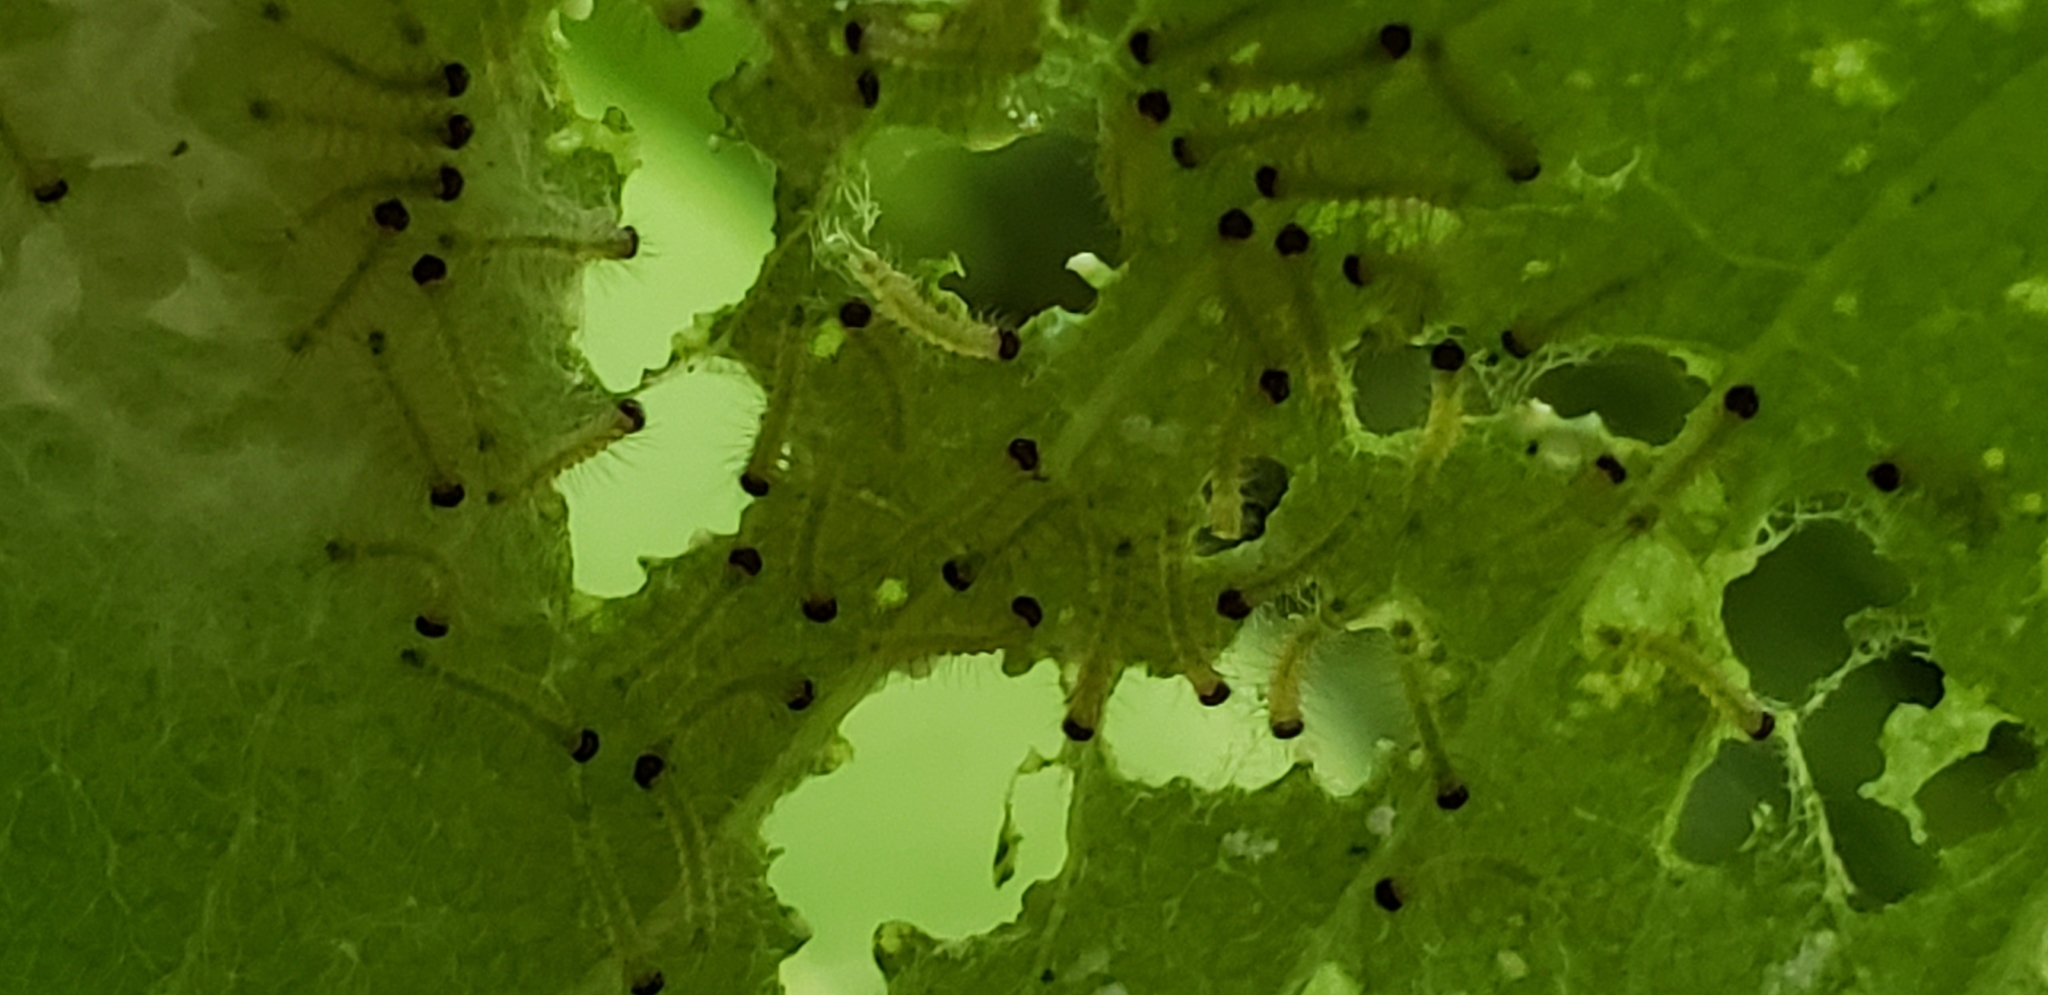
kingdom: Animalia
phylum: Arthropoda
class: Insecta
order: Lepidoptera
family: Erebidae
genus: Euchaetes
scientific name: Euchaetes egle
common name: Milkweed tussock moth
